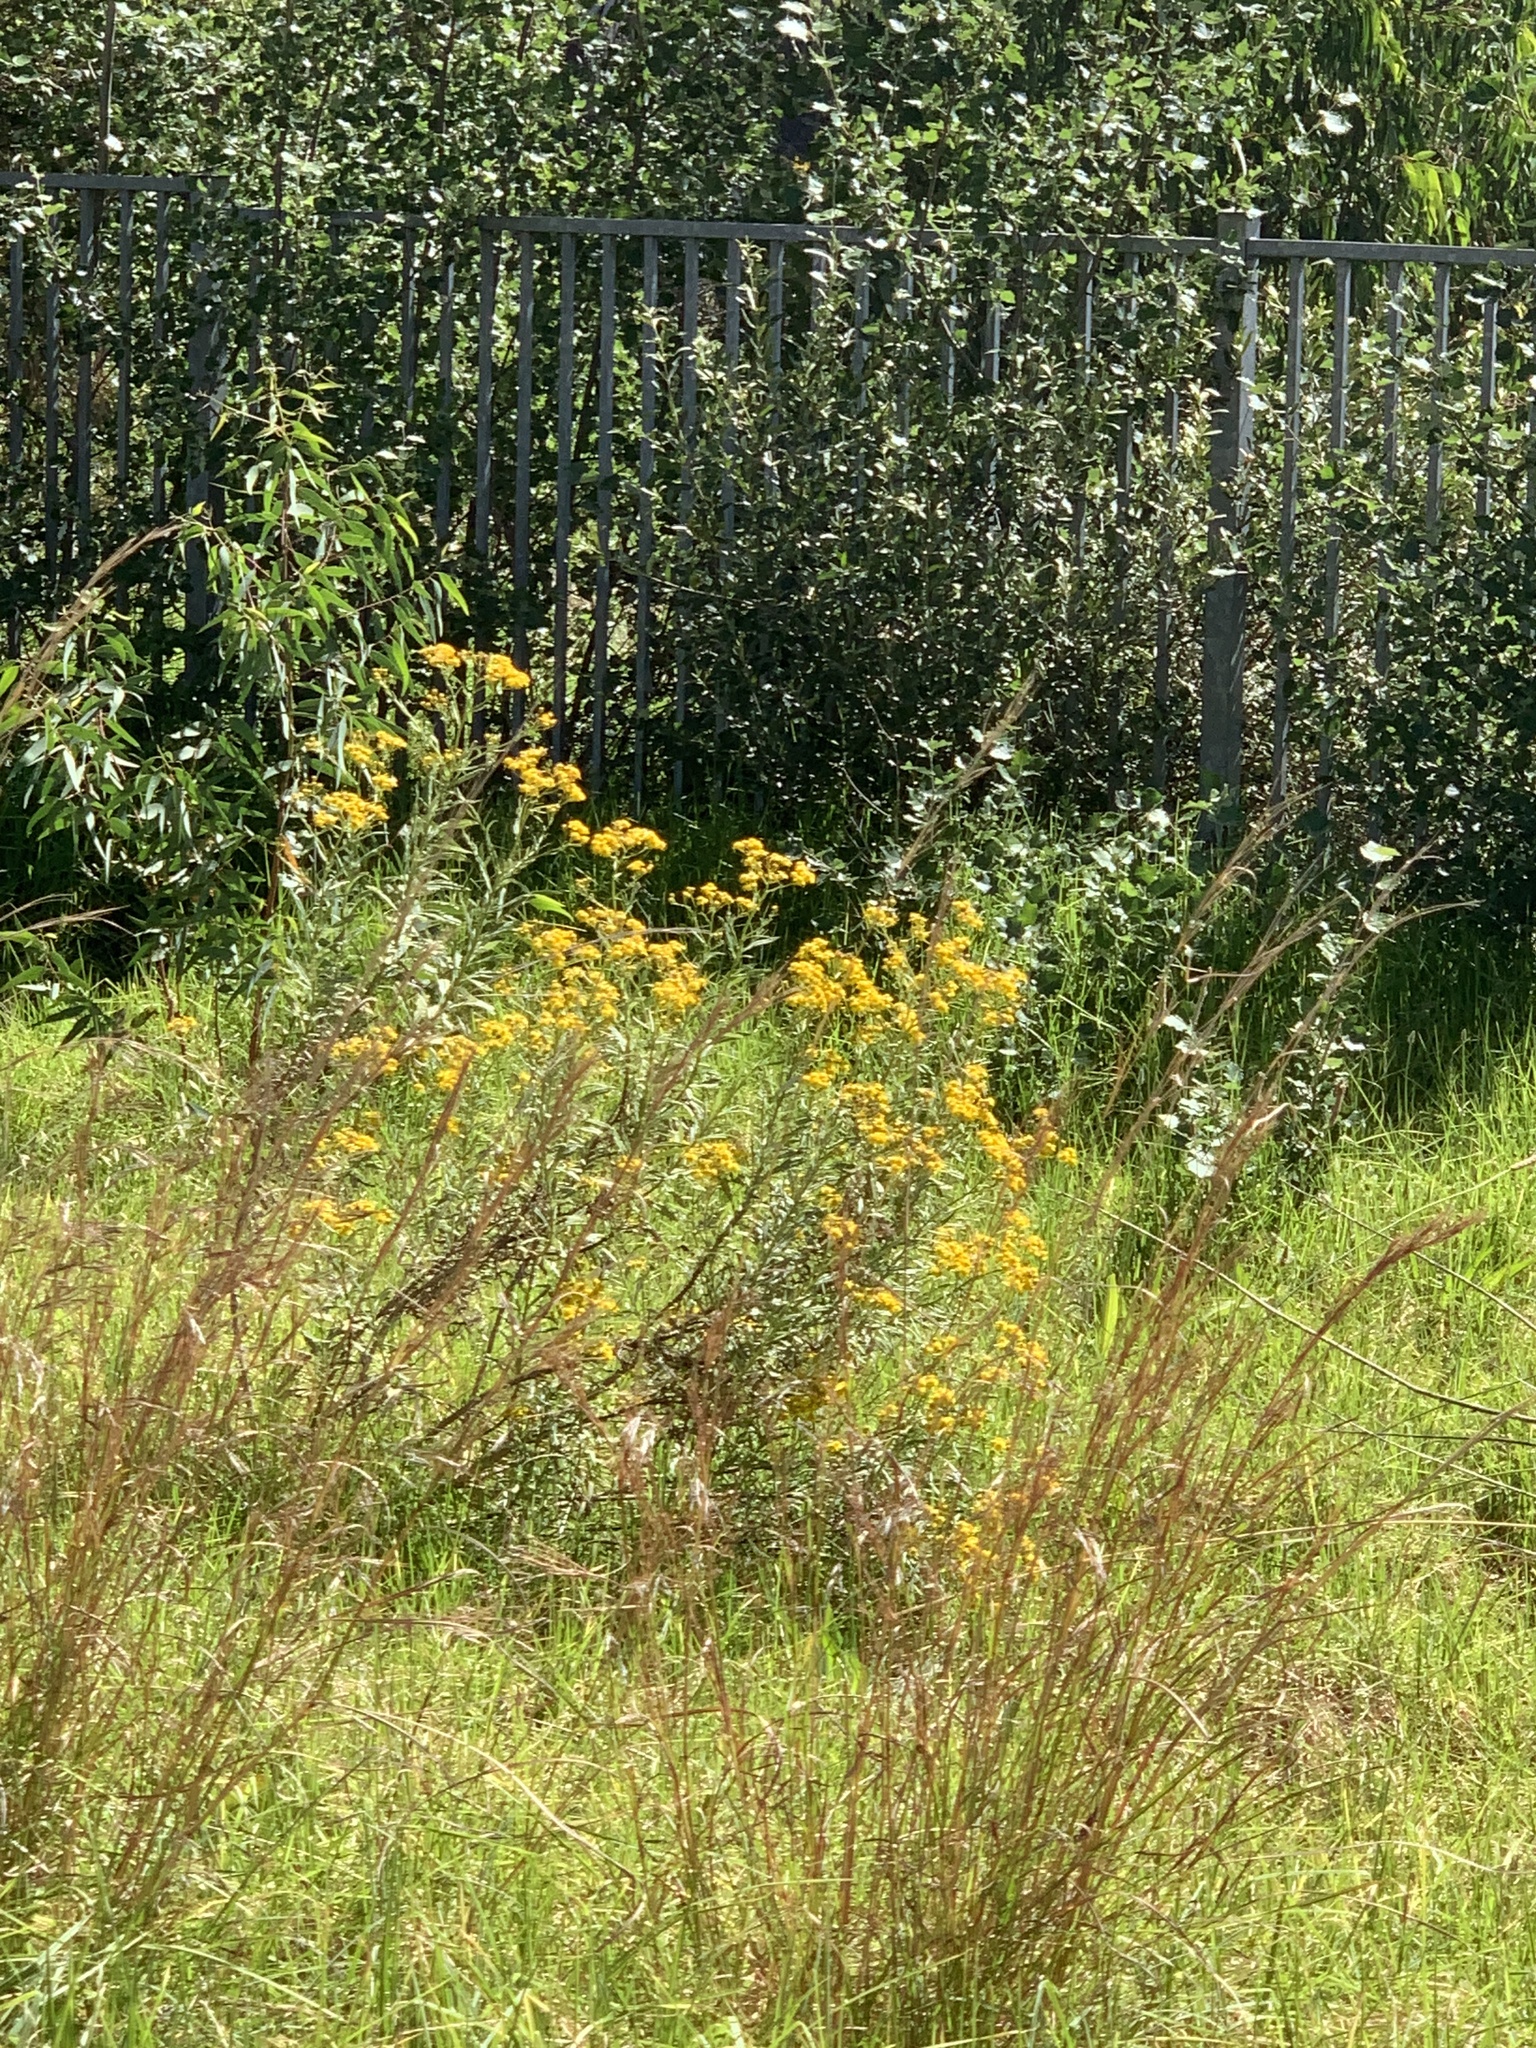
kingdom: Plantae
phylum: Tracheophyta
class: Magnoliopsida
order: Asterales
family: Asteraceae
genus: Senecio
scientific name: Senecio pterophorus
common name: Shoddy ragwort
